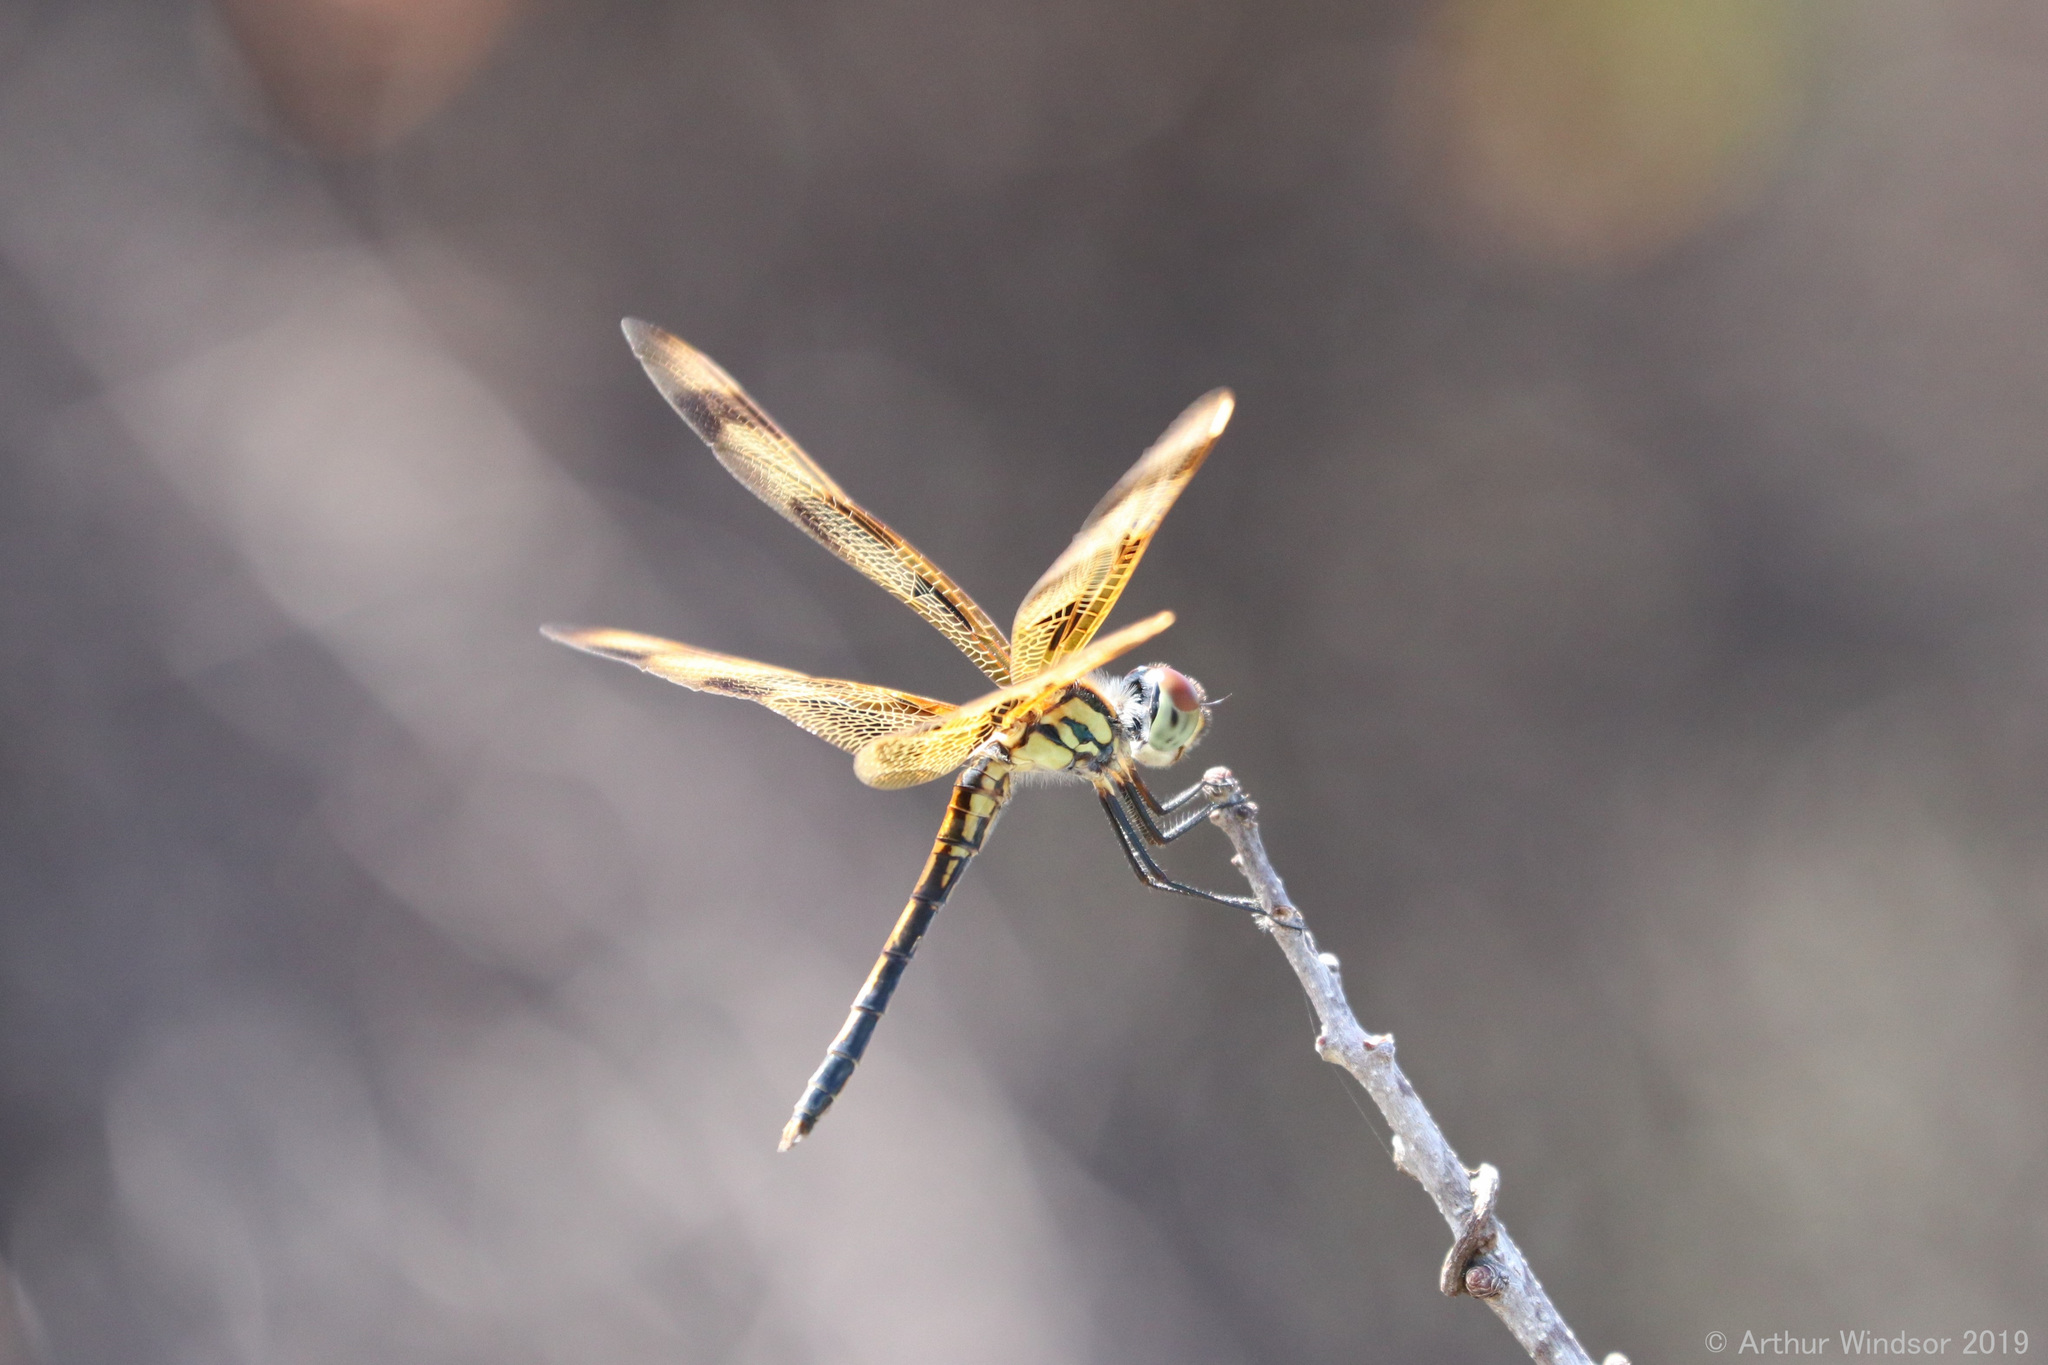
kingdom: Animalia
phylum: Arthropoda
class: Insecta
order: Odonata
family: Libellulidae
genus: Celithemis
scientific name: Celithemis eponina
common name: Halloween pennant
